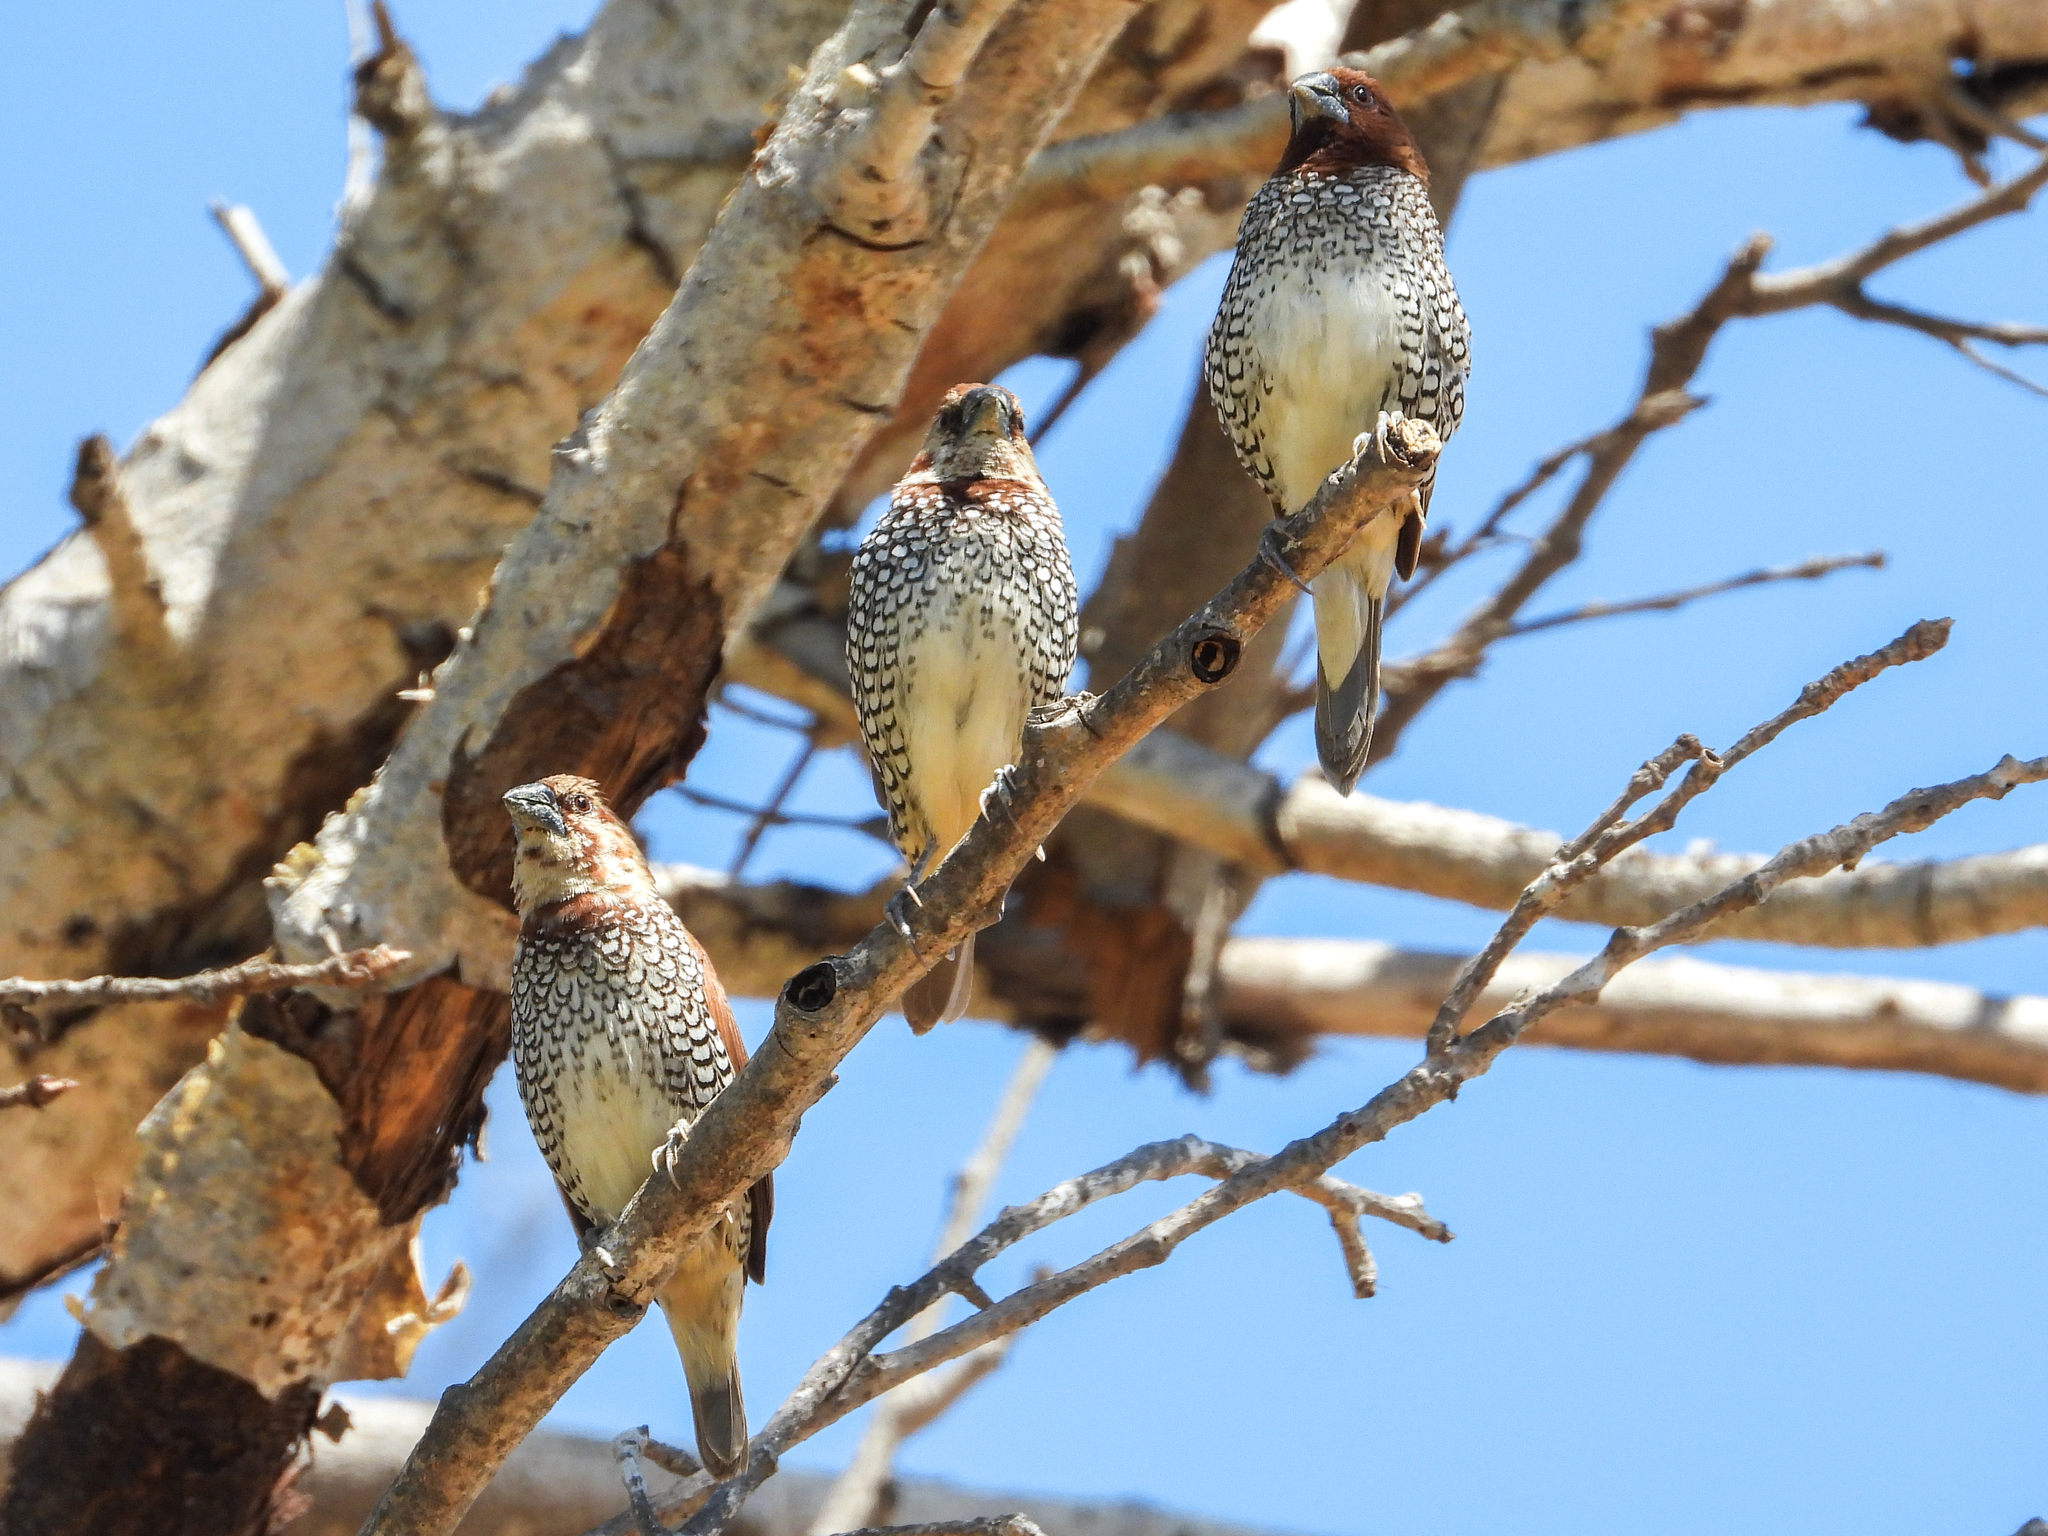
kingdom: Animalia
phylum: Chordata
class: Aves
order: Passeriformes
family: Estrildidae
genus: Lonchura
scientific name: Lonchura punctulata
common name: Scaly-breasted munia
